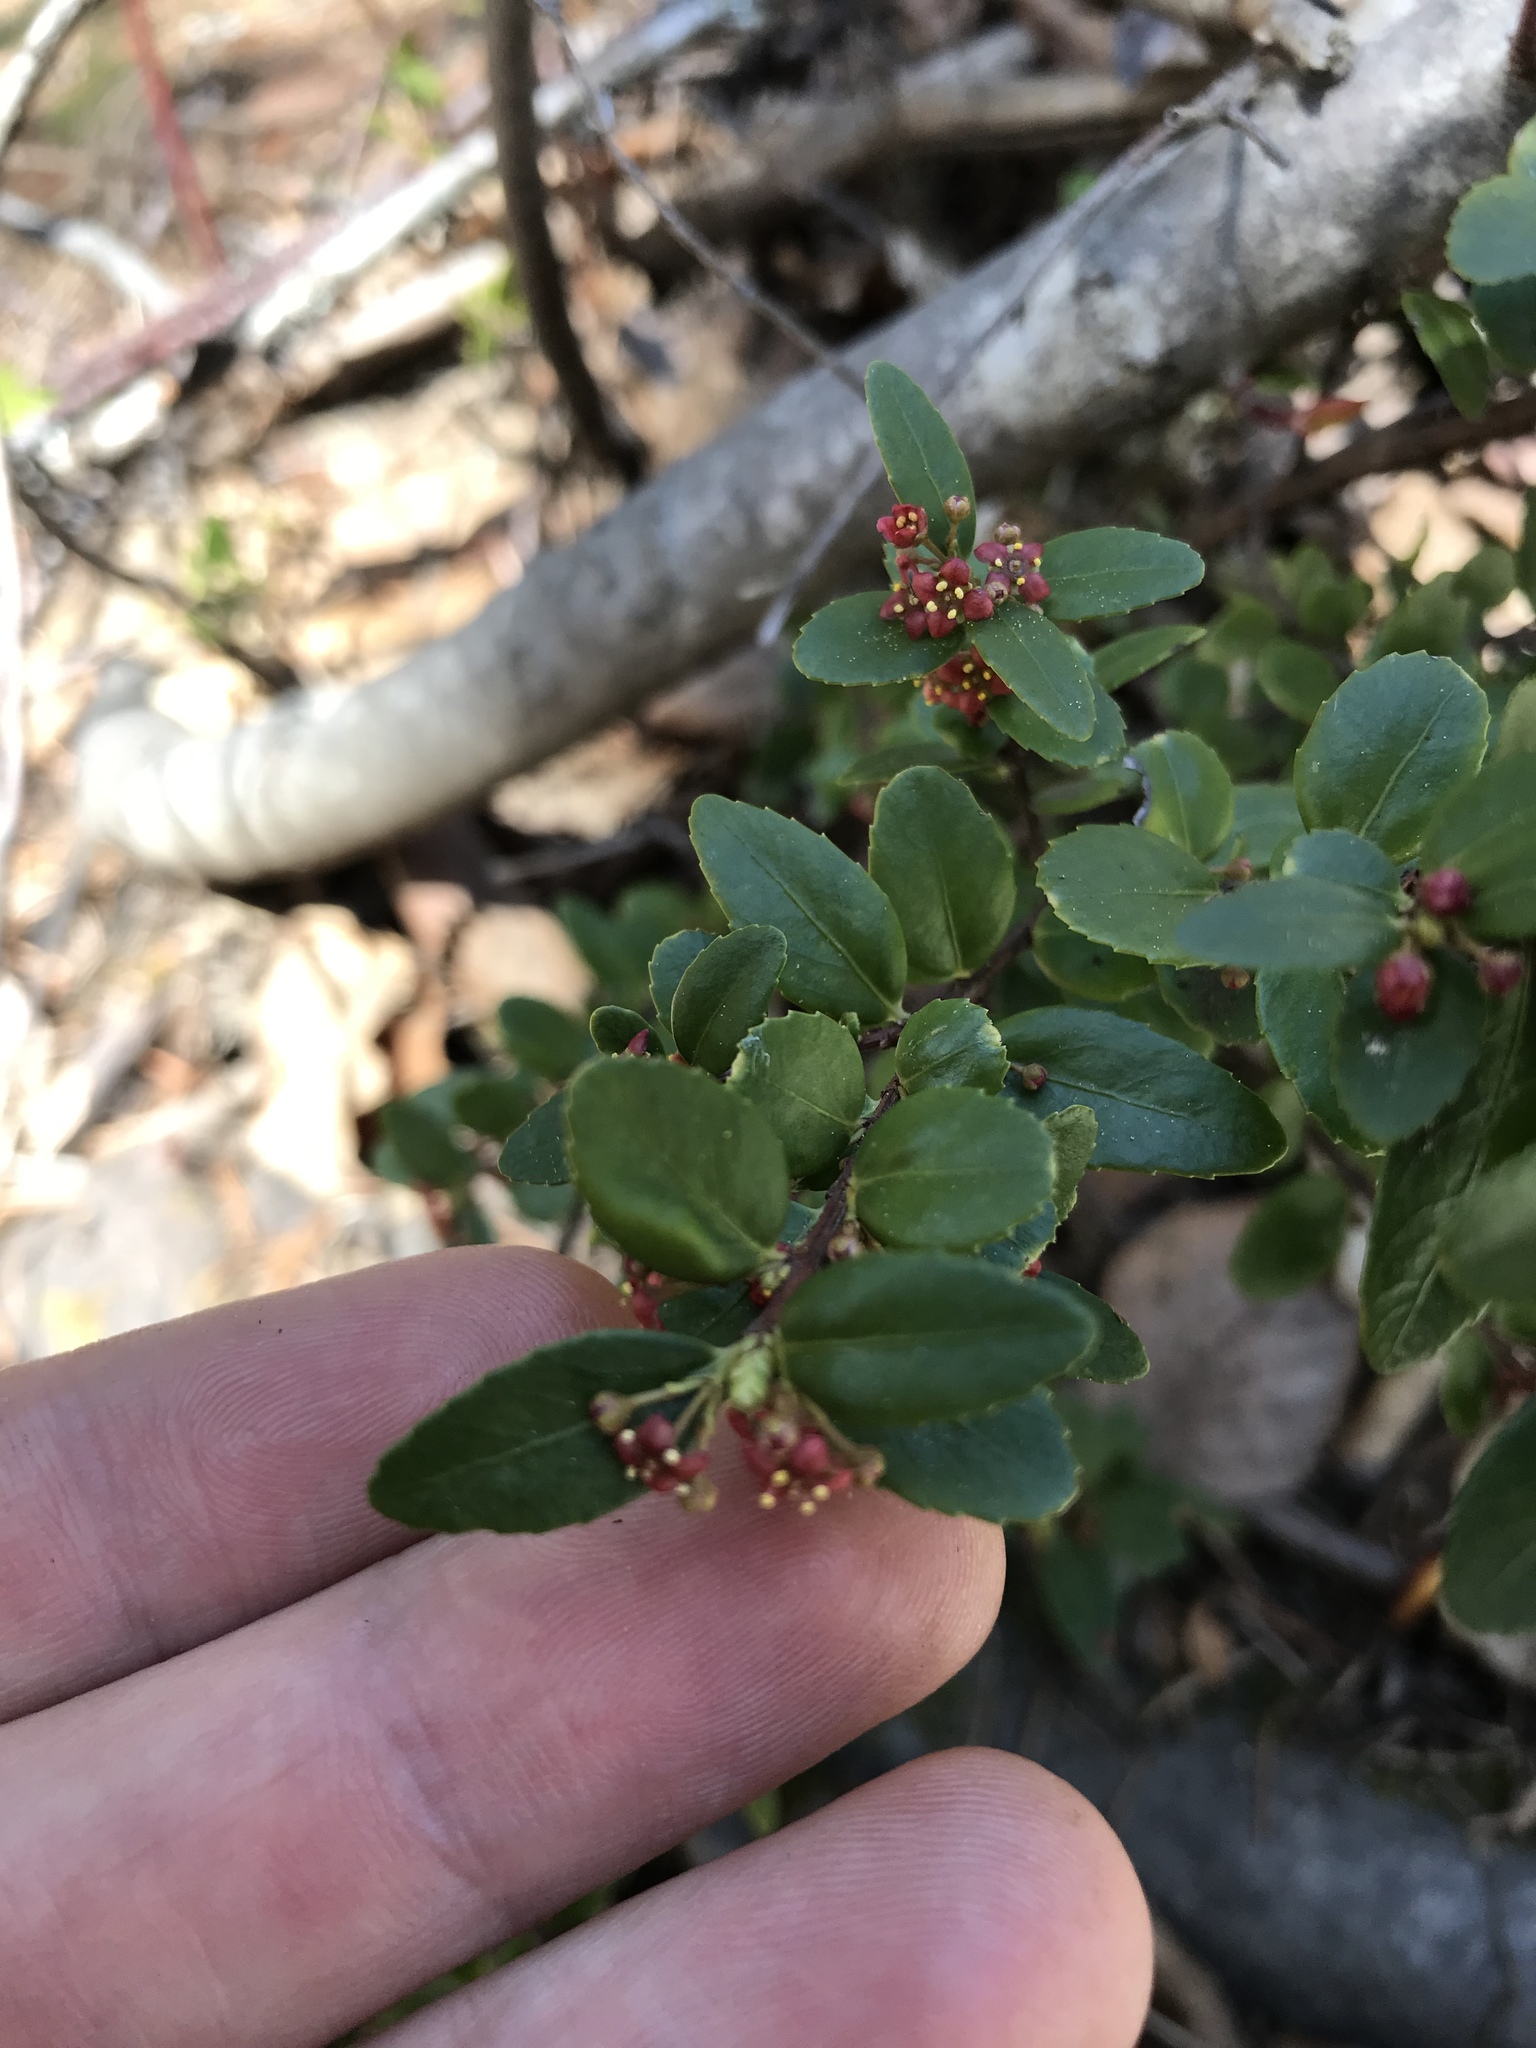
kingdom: Plantae
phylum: Tracheophyta
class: Magnoliopsida
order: Celastrales
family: Celastraceae
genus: Paxistima
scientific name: Paxistima myrsinites
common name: Mountain-lover
